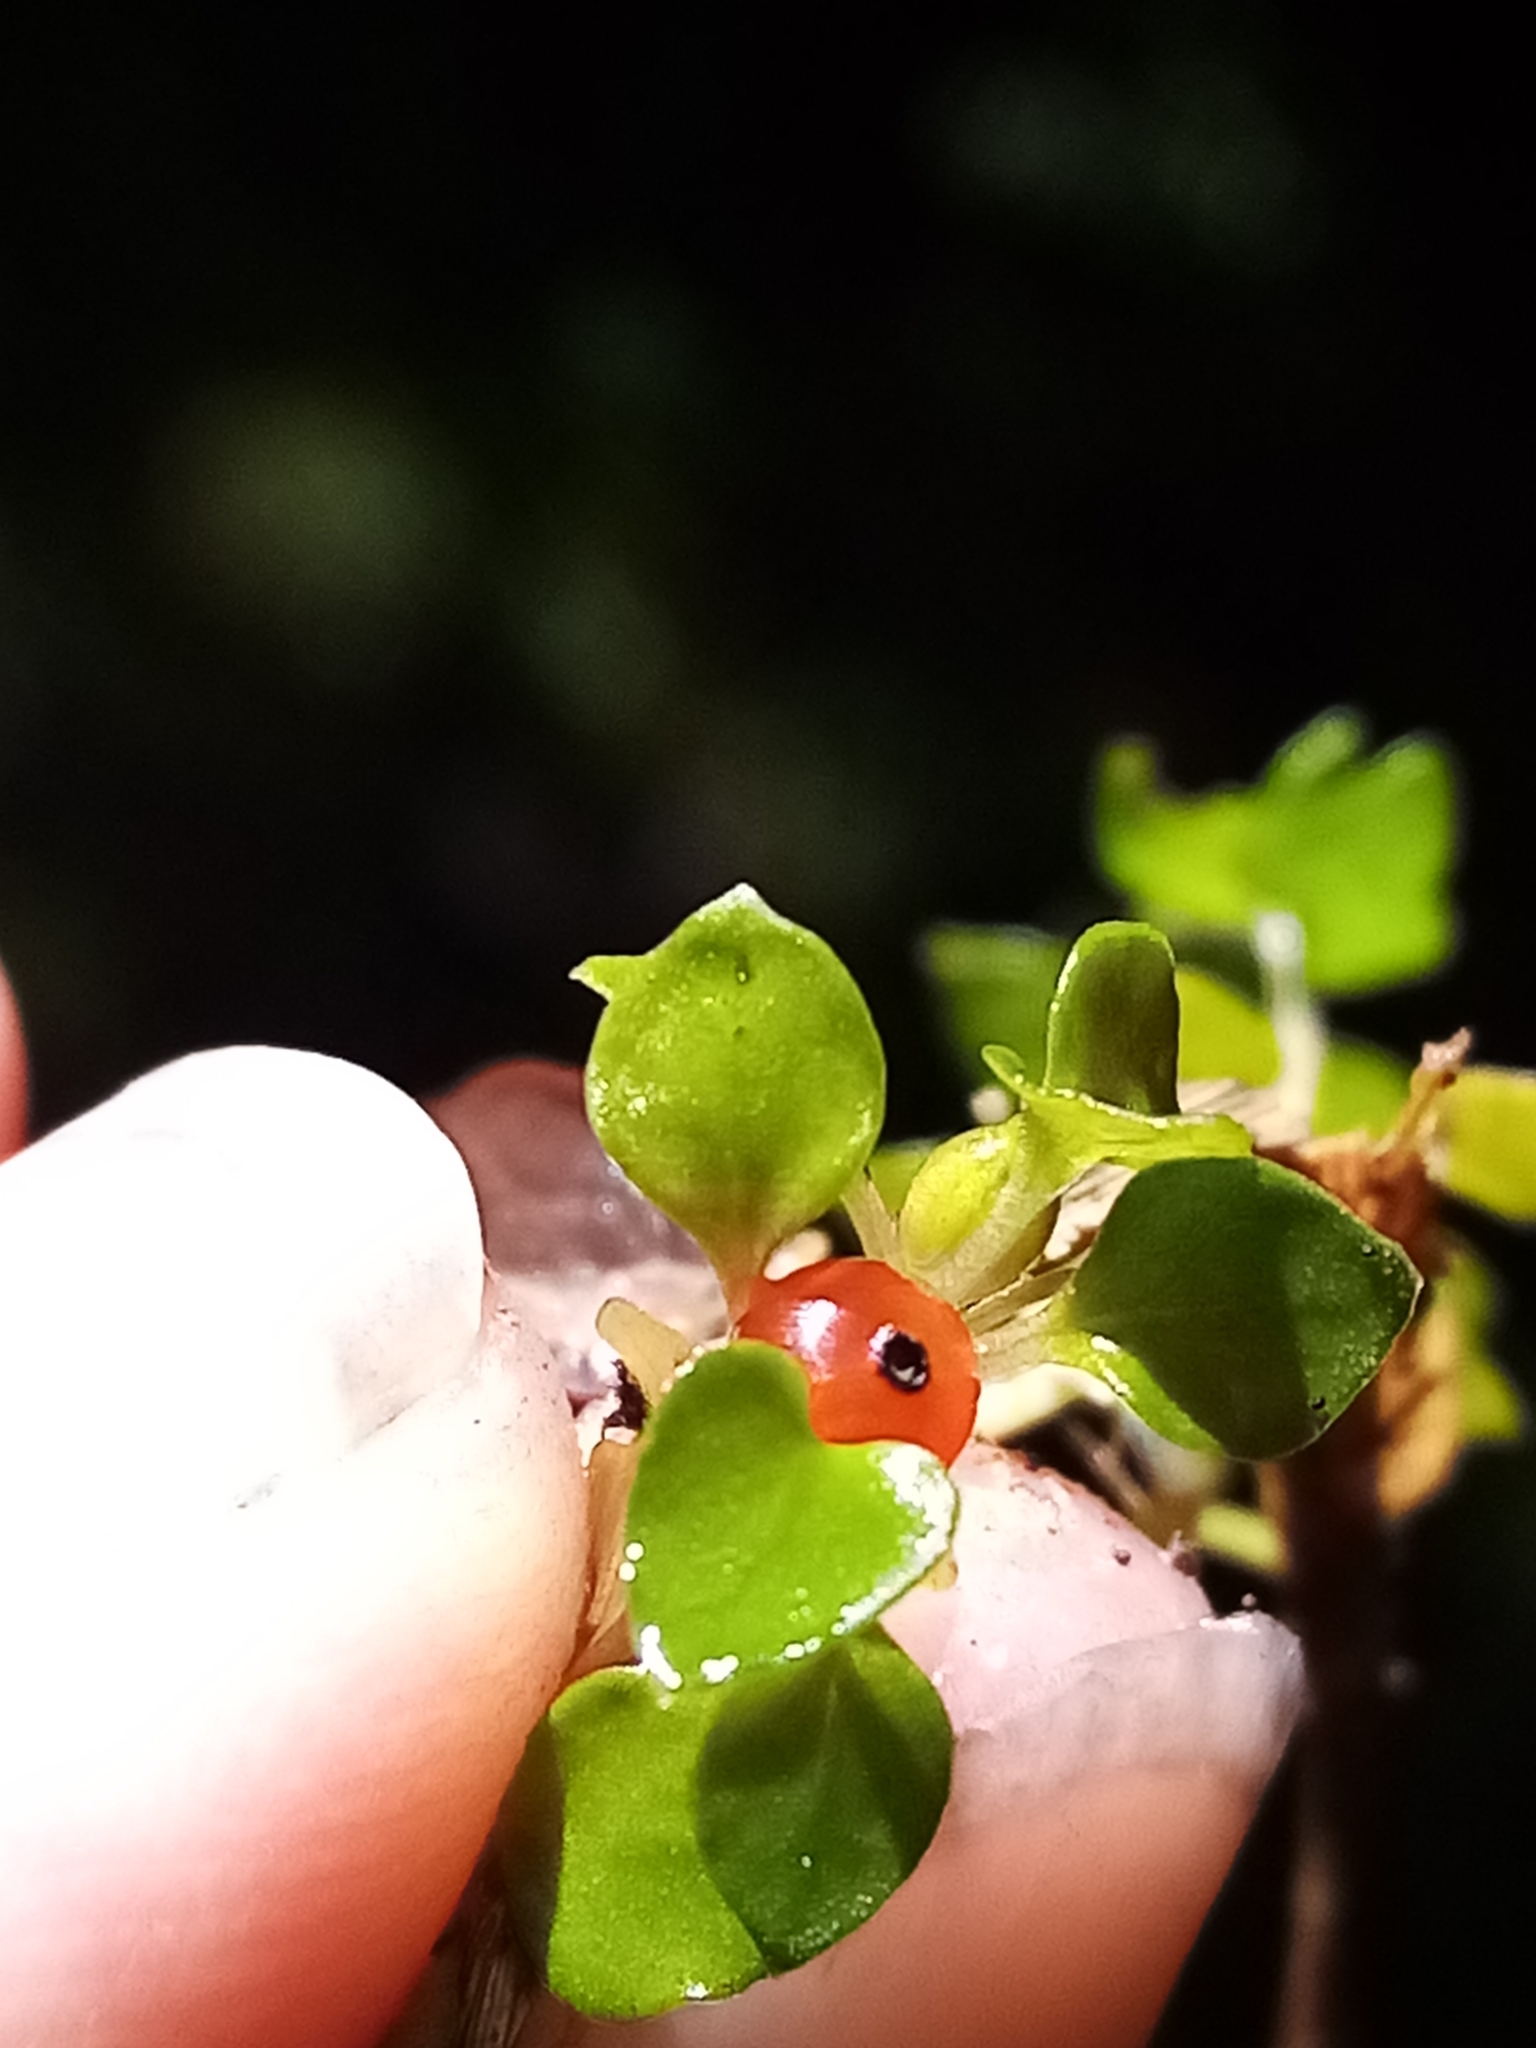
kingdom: Plantae
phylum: Tracheophyta
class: Magnoliopsida
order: Gentianales
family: Rubiaceae
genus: Nertera
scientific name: Nertera granadensis
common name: Beadplant
